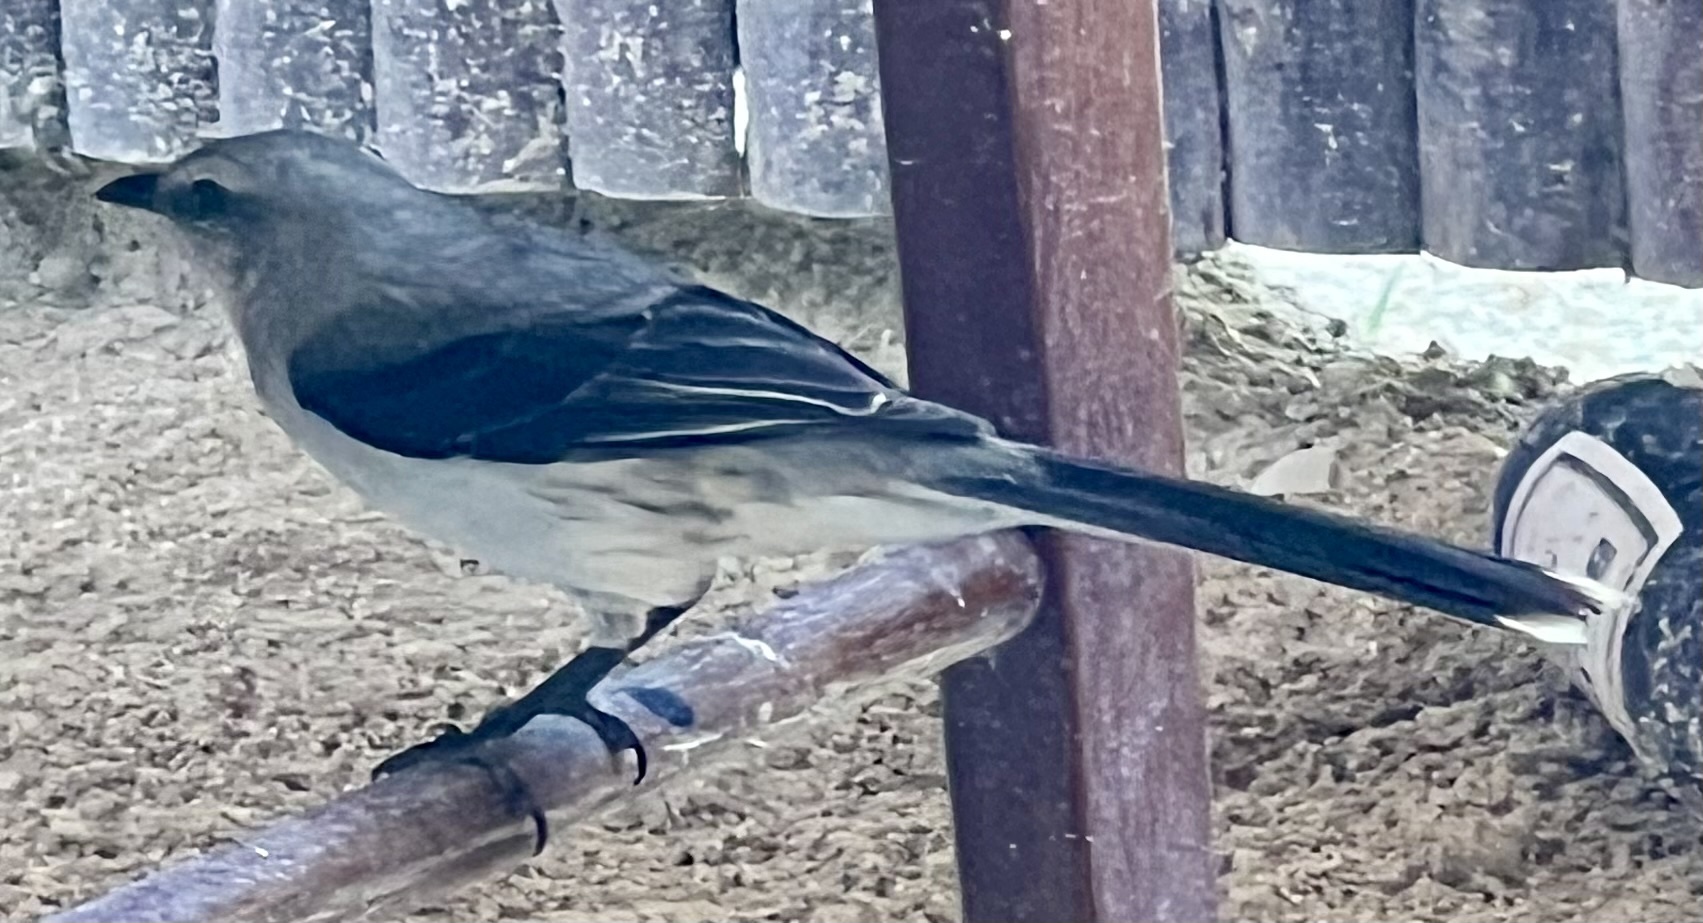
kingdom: Animalia
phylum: Chordata
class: Aves
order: Passeriformes
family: Mimidae
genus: Mimus
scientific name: Mimus gilvus
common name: Tropical mockingbird
